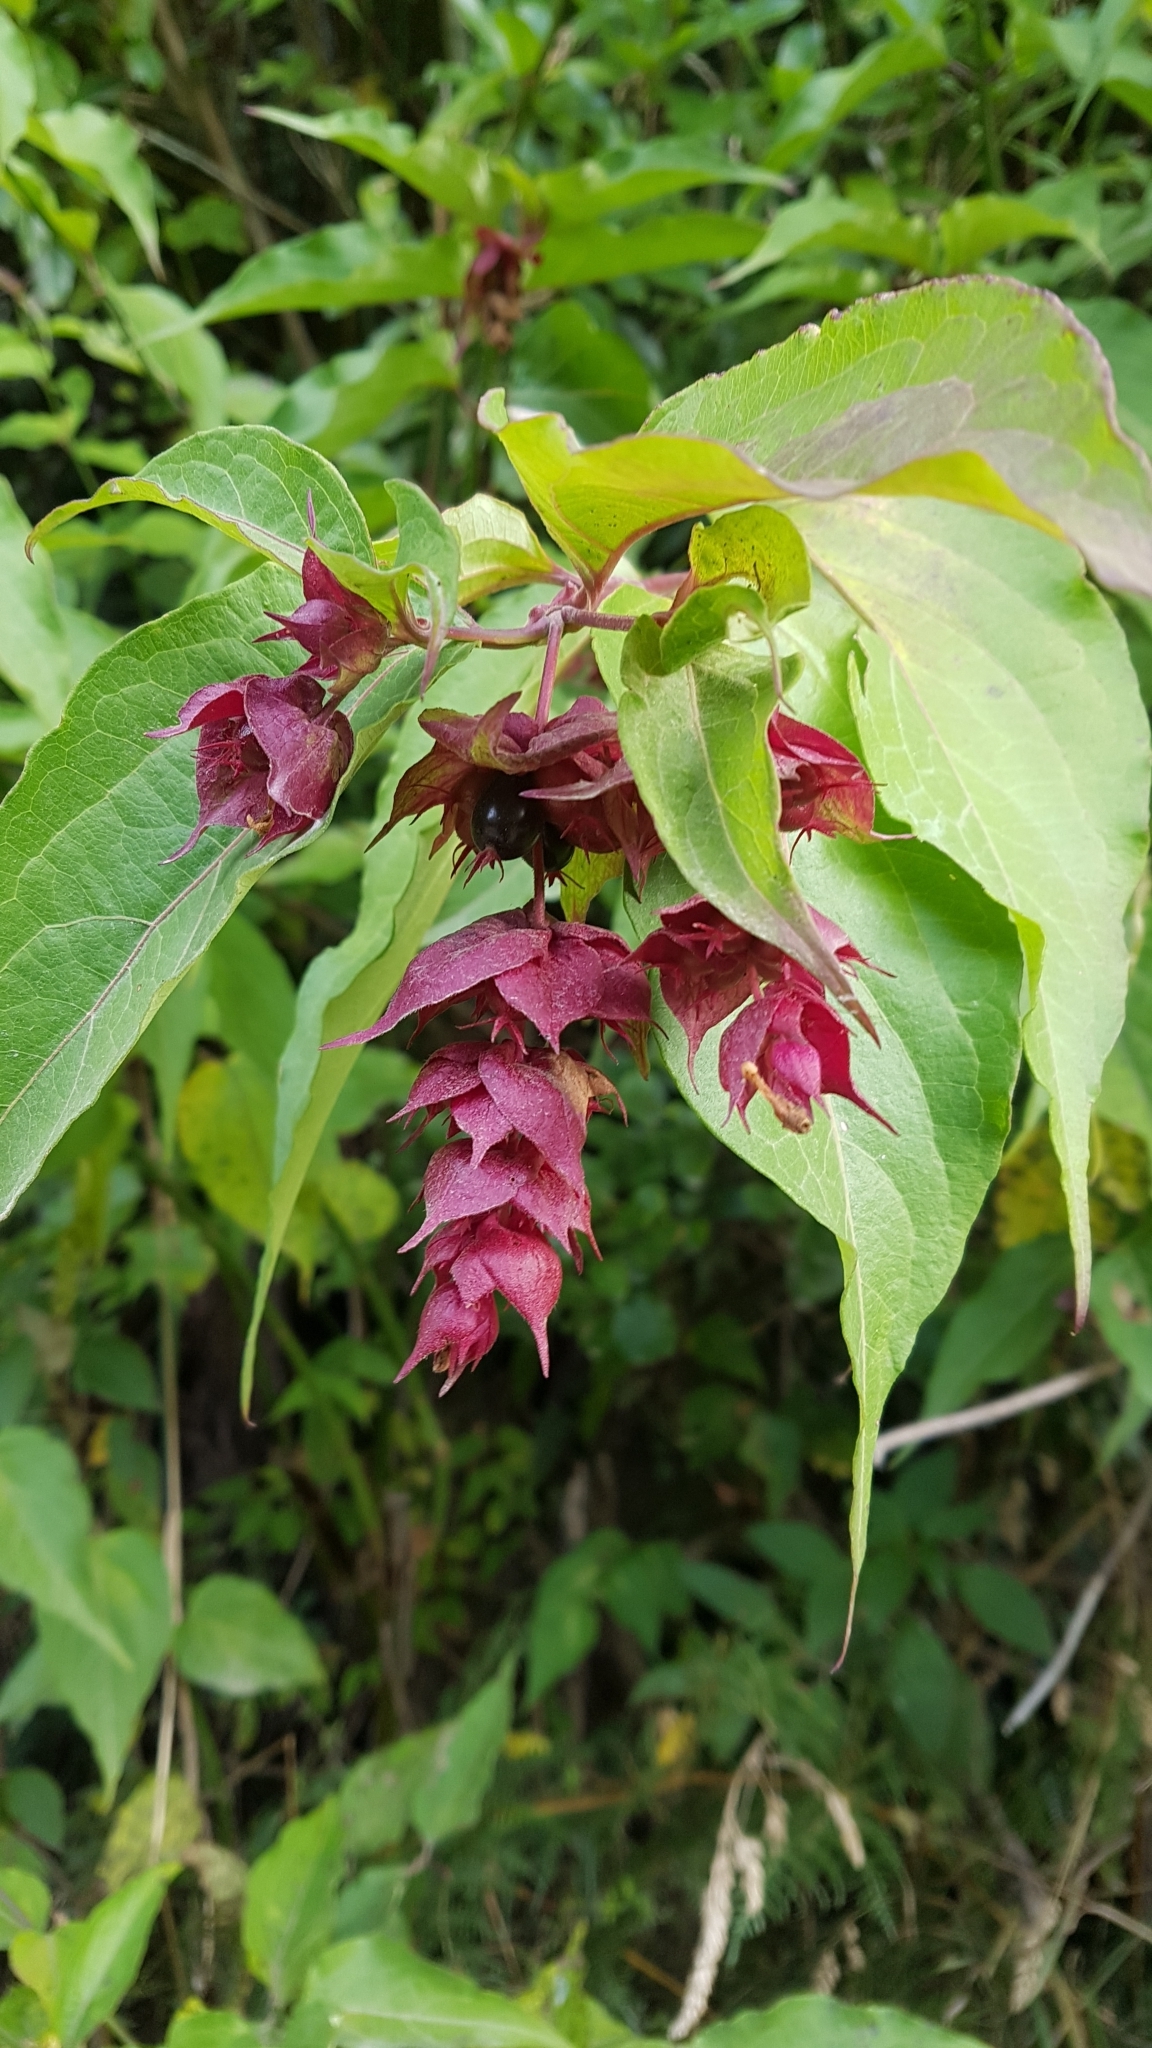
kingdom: Plantae
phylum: Tracheophyta
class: Magnoliopsida
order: Dipsacales
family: Caprifoliaceae
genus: Leycesteria
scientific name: Leycesteria formosa
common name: Himalayan honeysuckle
